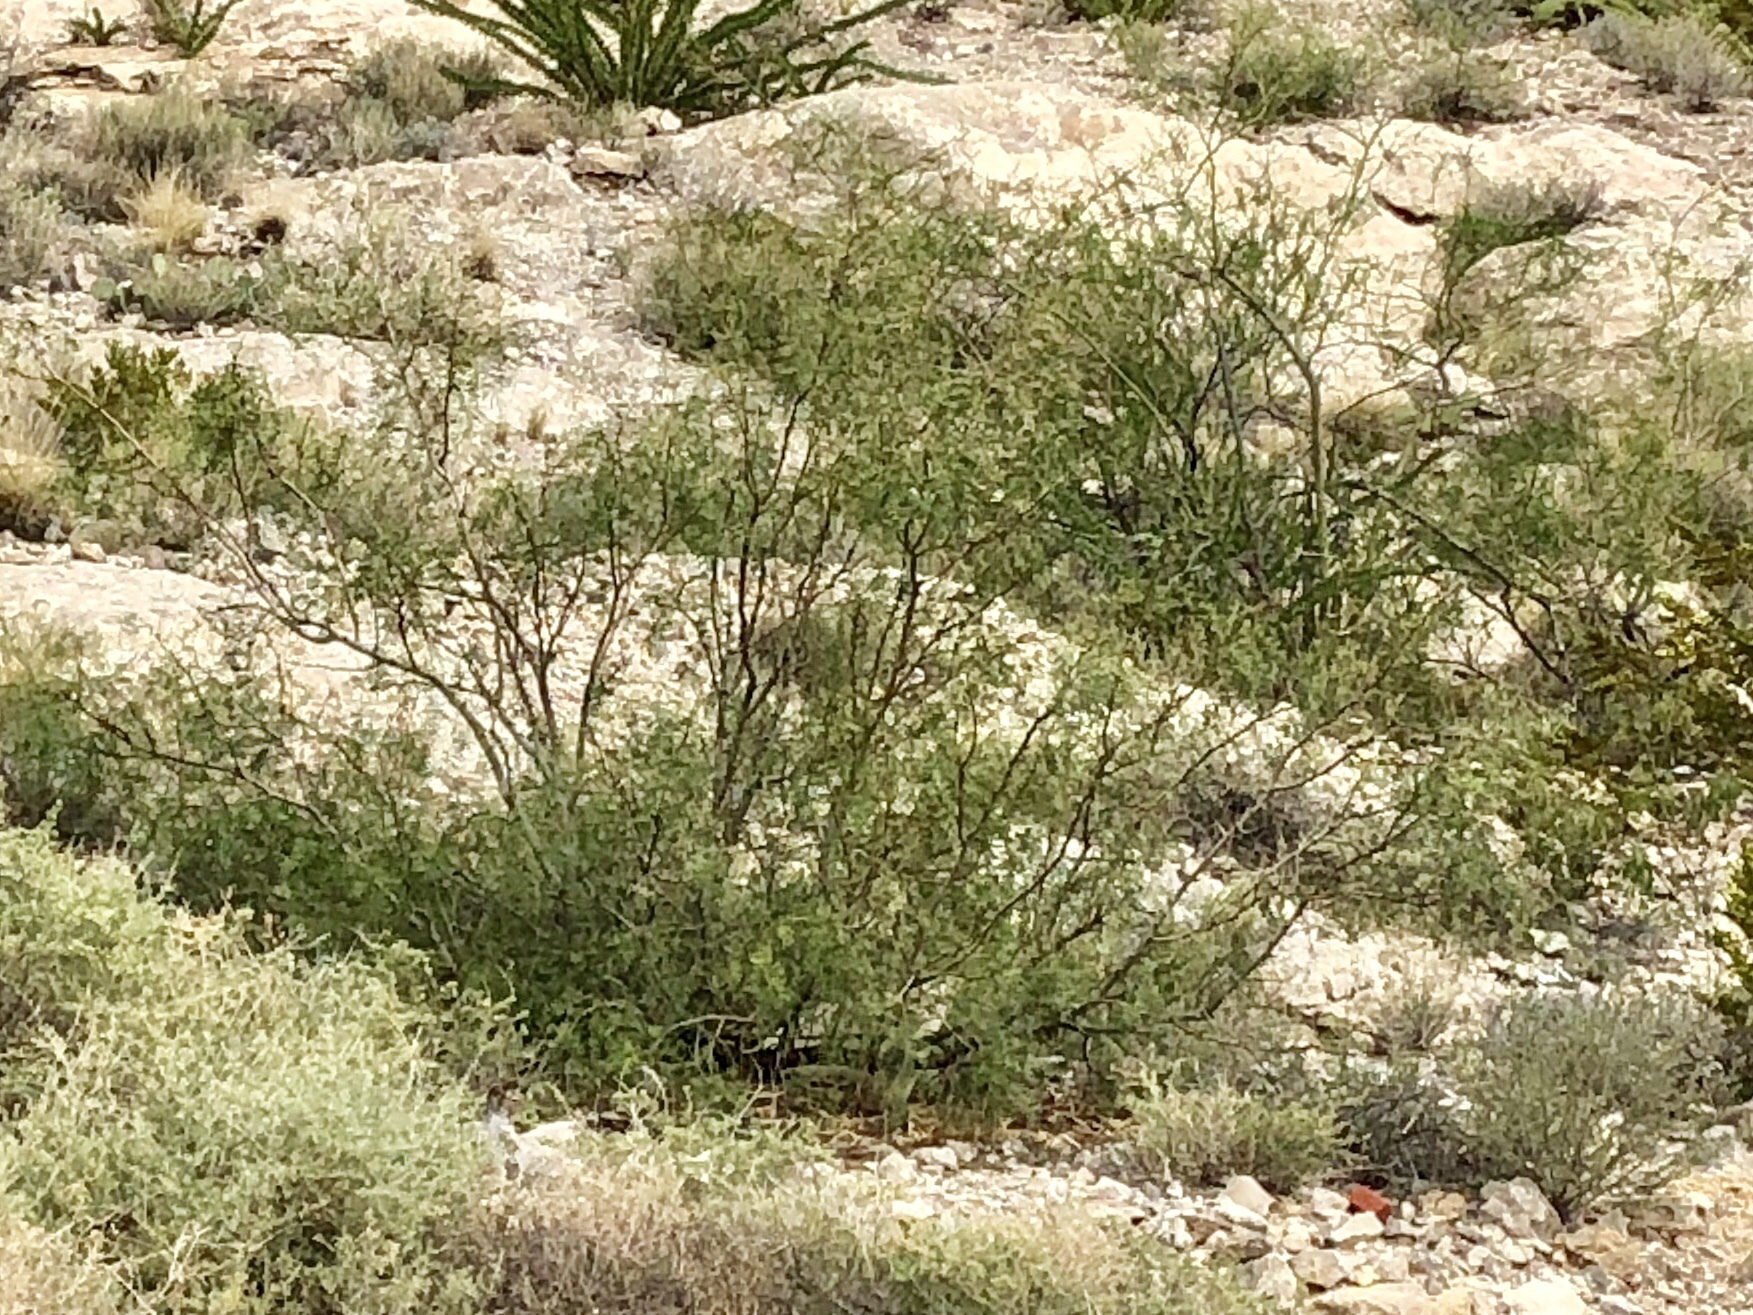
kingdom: Plantae
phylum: Tracheophyta
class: Magnoliopsida
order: Zygophyllales
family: Zygophyllaceae
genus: Larrea
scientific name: Larrea tridentata
